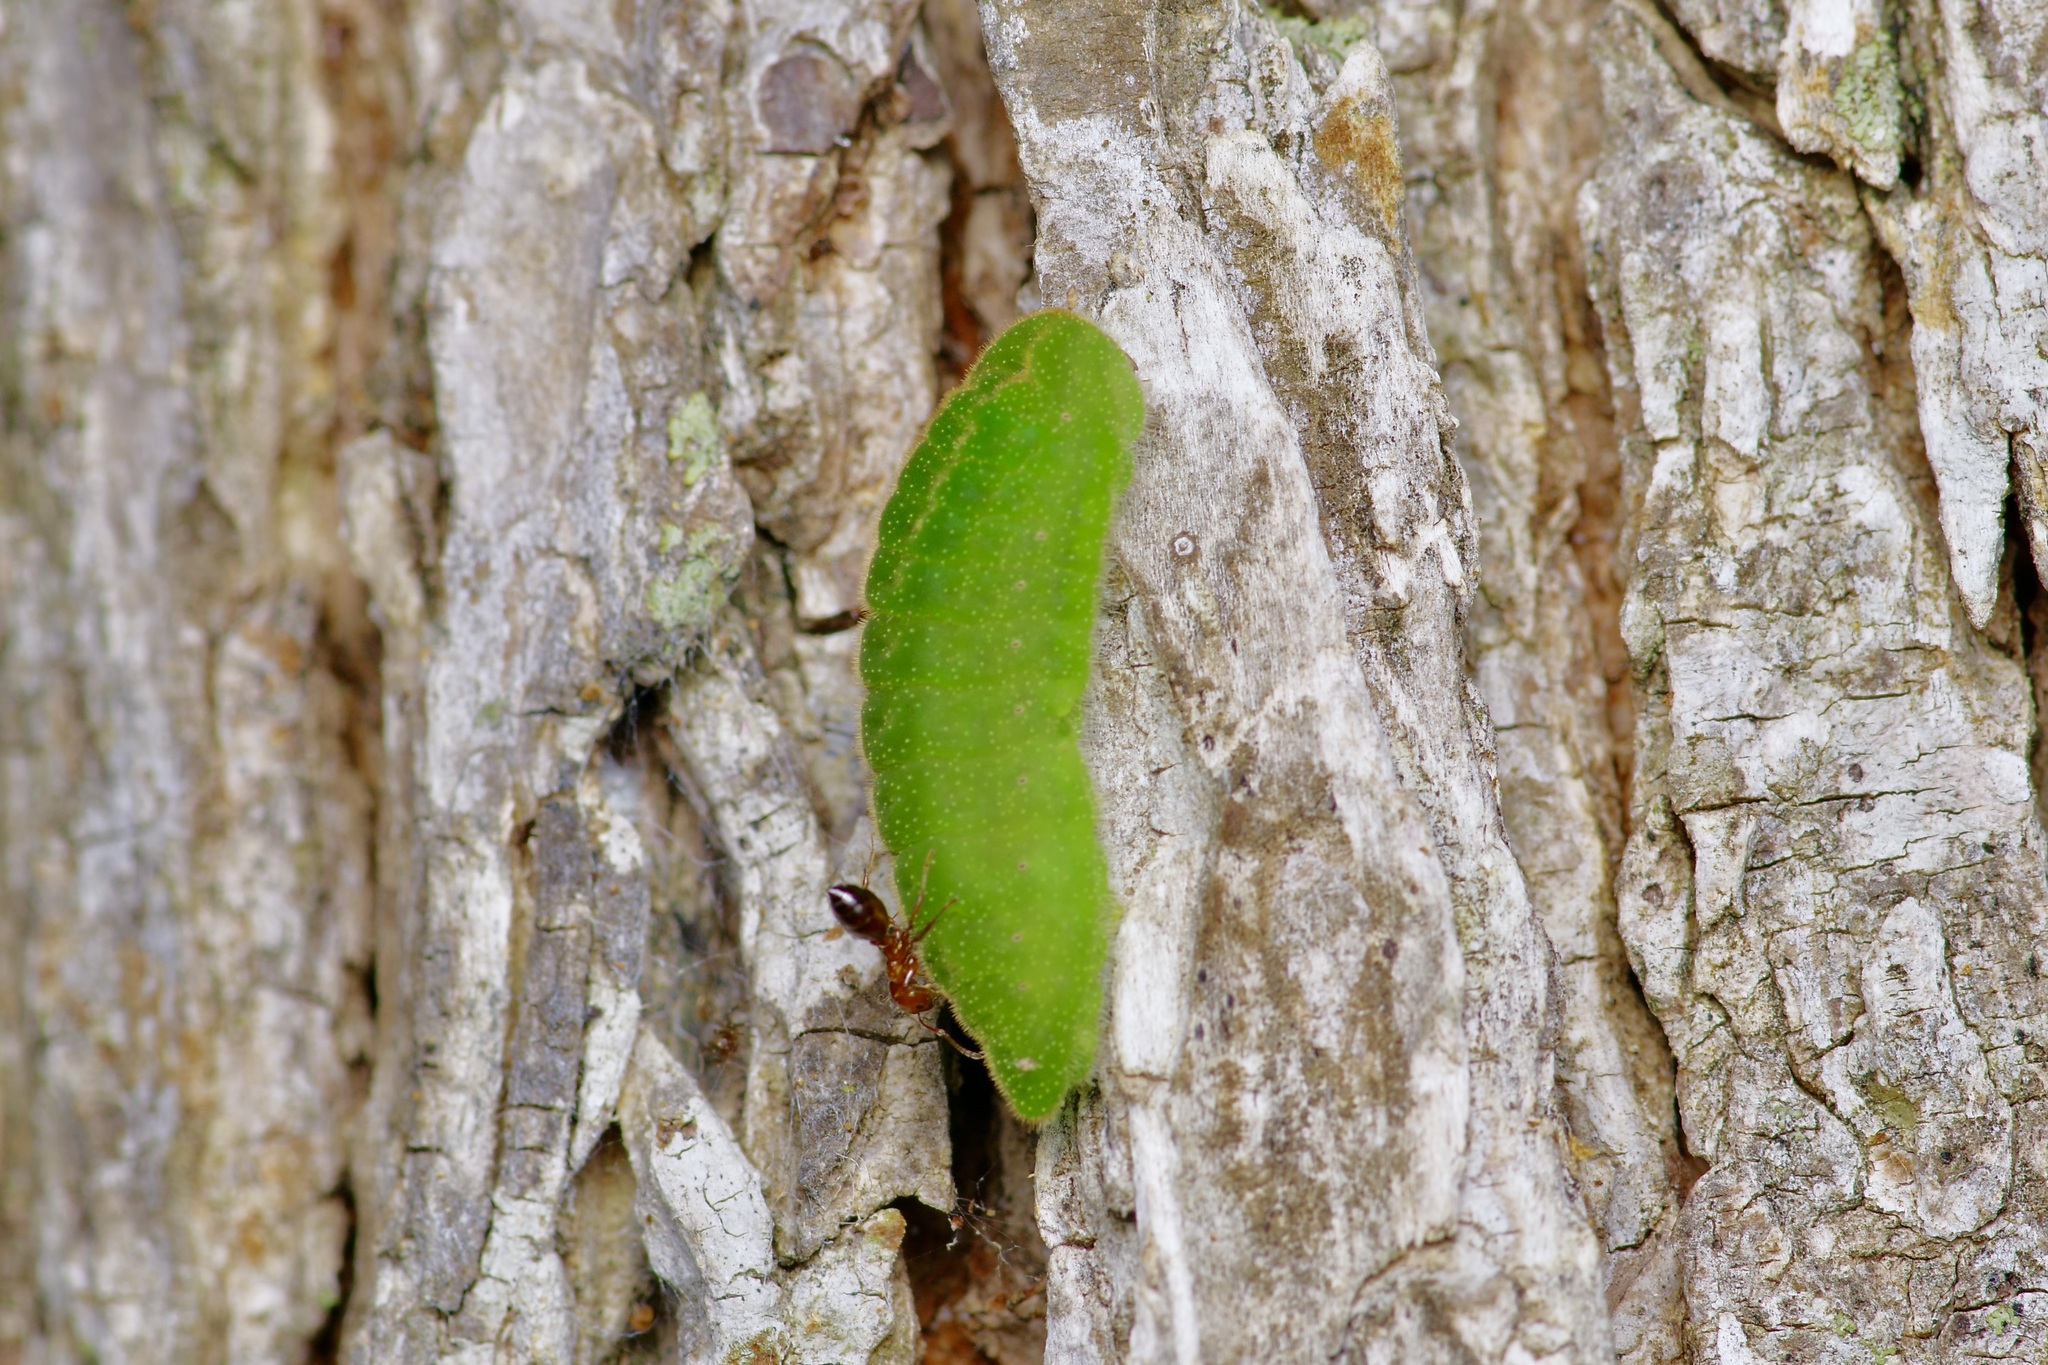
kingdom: Animalia
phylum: Arthropoda
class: Insecta
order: Lepidoptera
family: Lycaenidae
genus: Atlides
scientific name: Atlides halesus
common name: Great purple hairstreak
